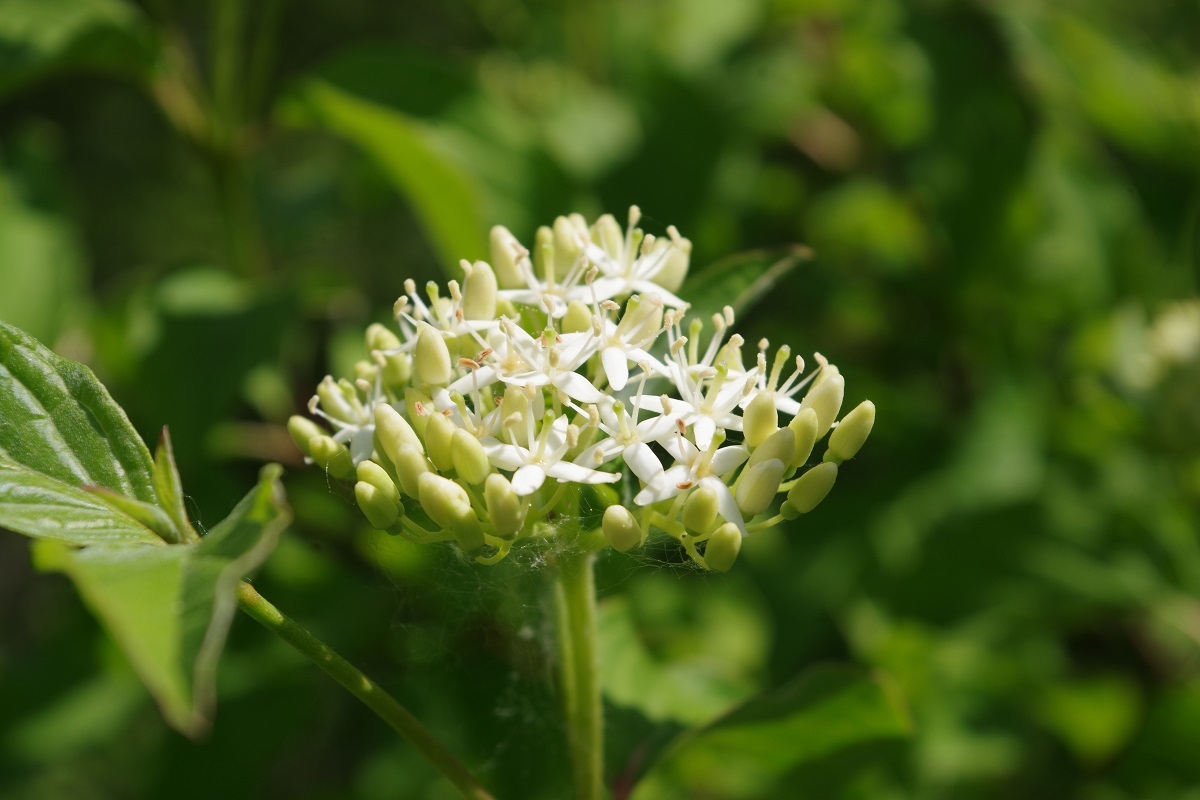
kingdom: Plantae
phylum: Tracheophyta
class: Magnoliopsida
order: Cornales
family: Cornaceae
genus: Cornus
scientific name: Cornus sanguinea
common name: Dogwood
